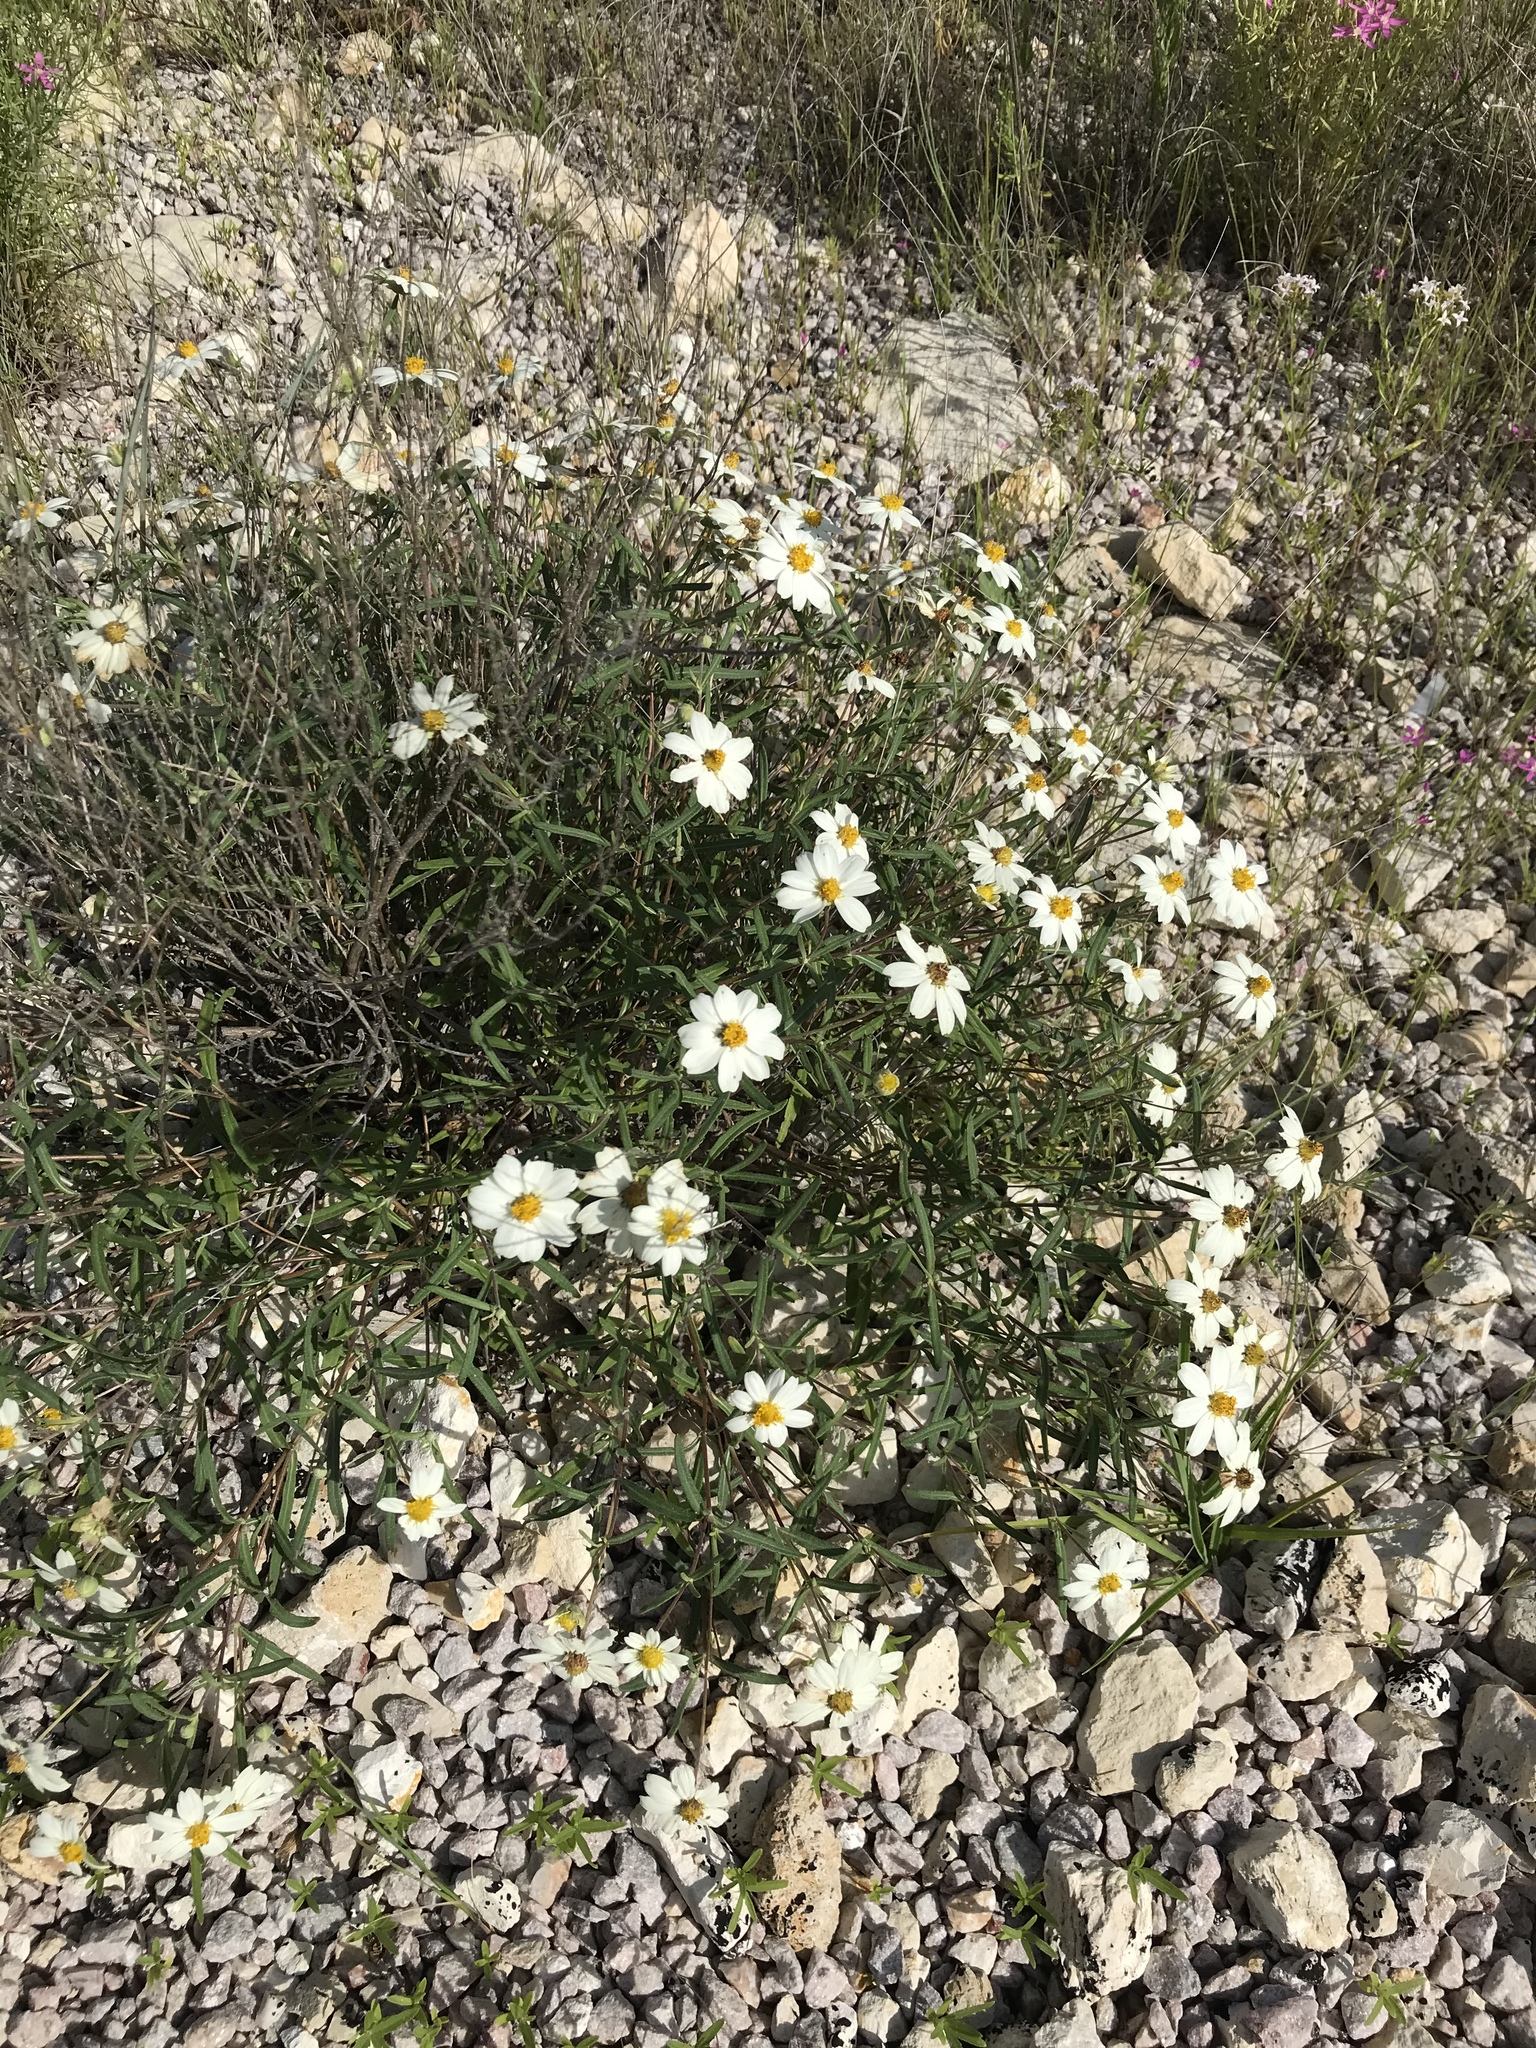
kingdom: Plantae
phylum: Tracheophyta
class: Magnoliopsida
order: Asterales
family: Asteraceae
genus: Melampodium
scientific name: Melampodium leucanthum
